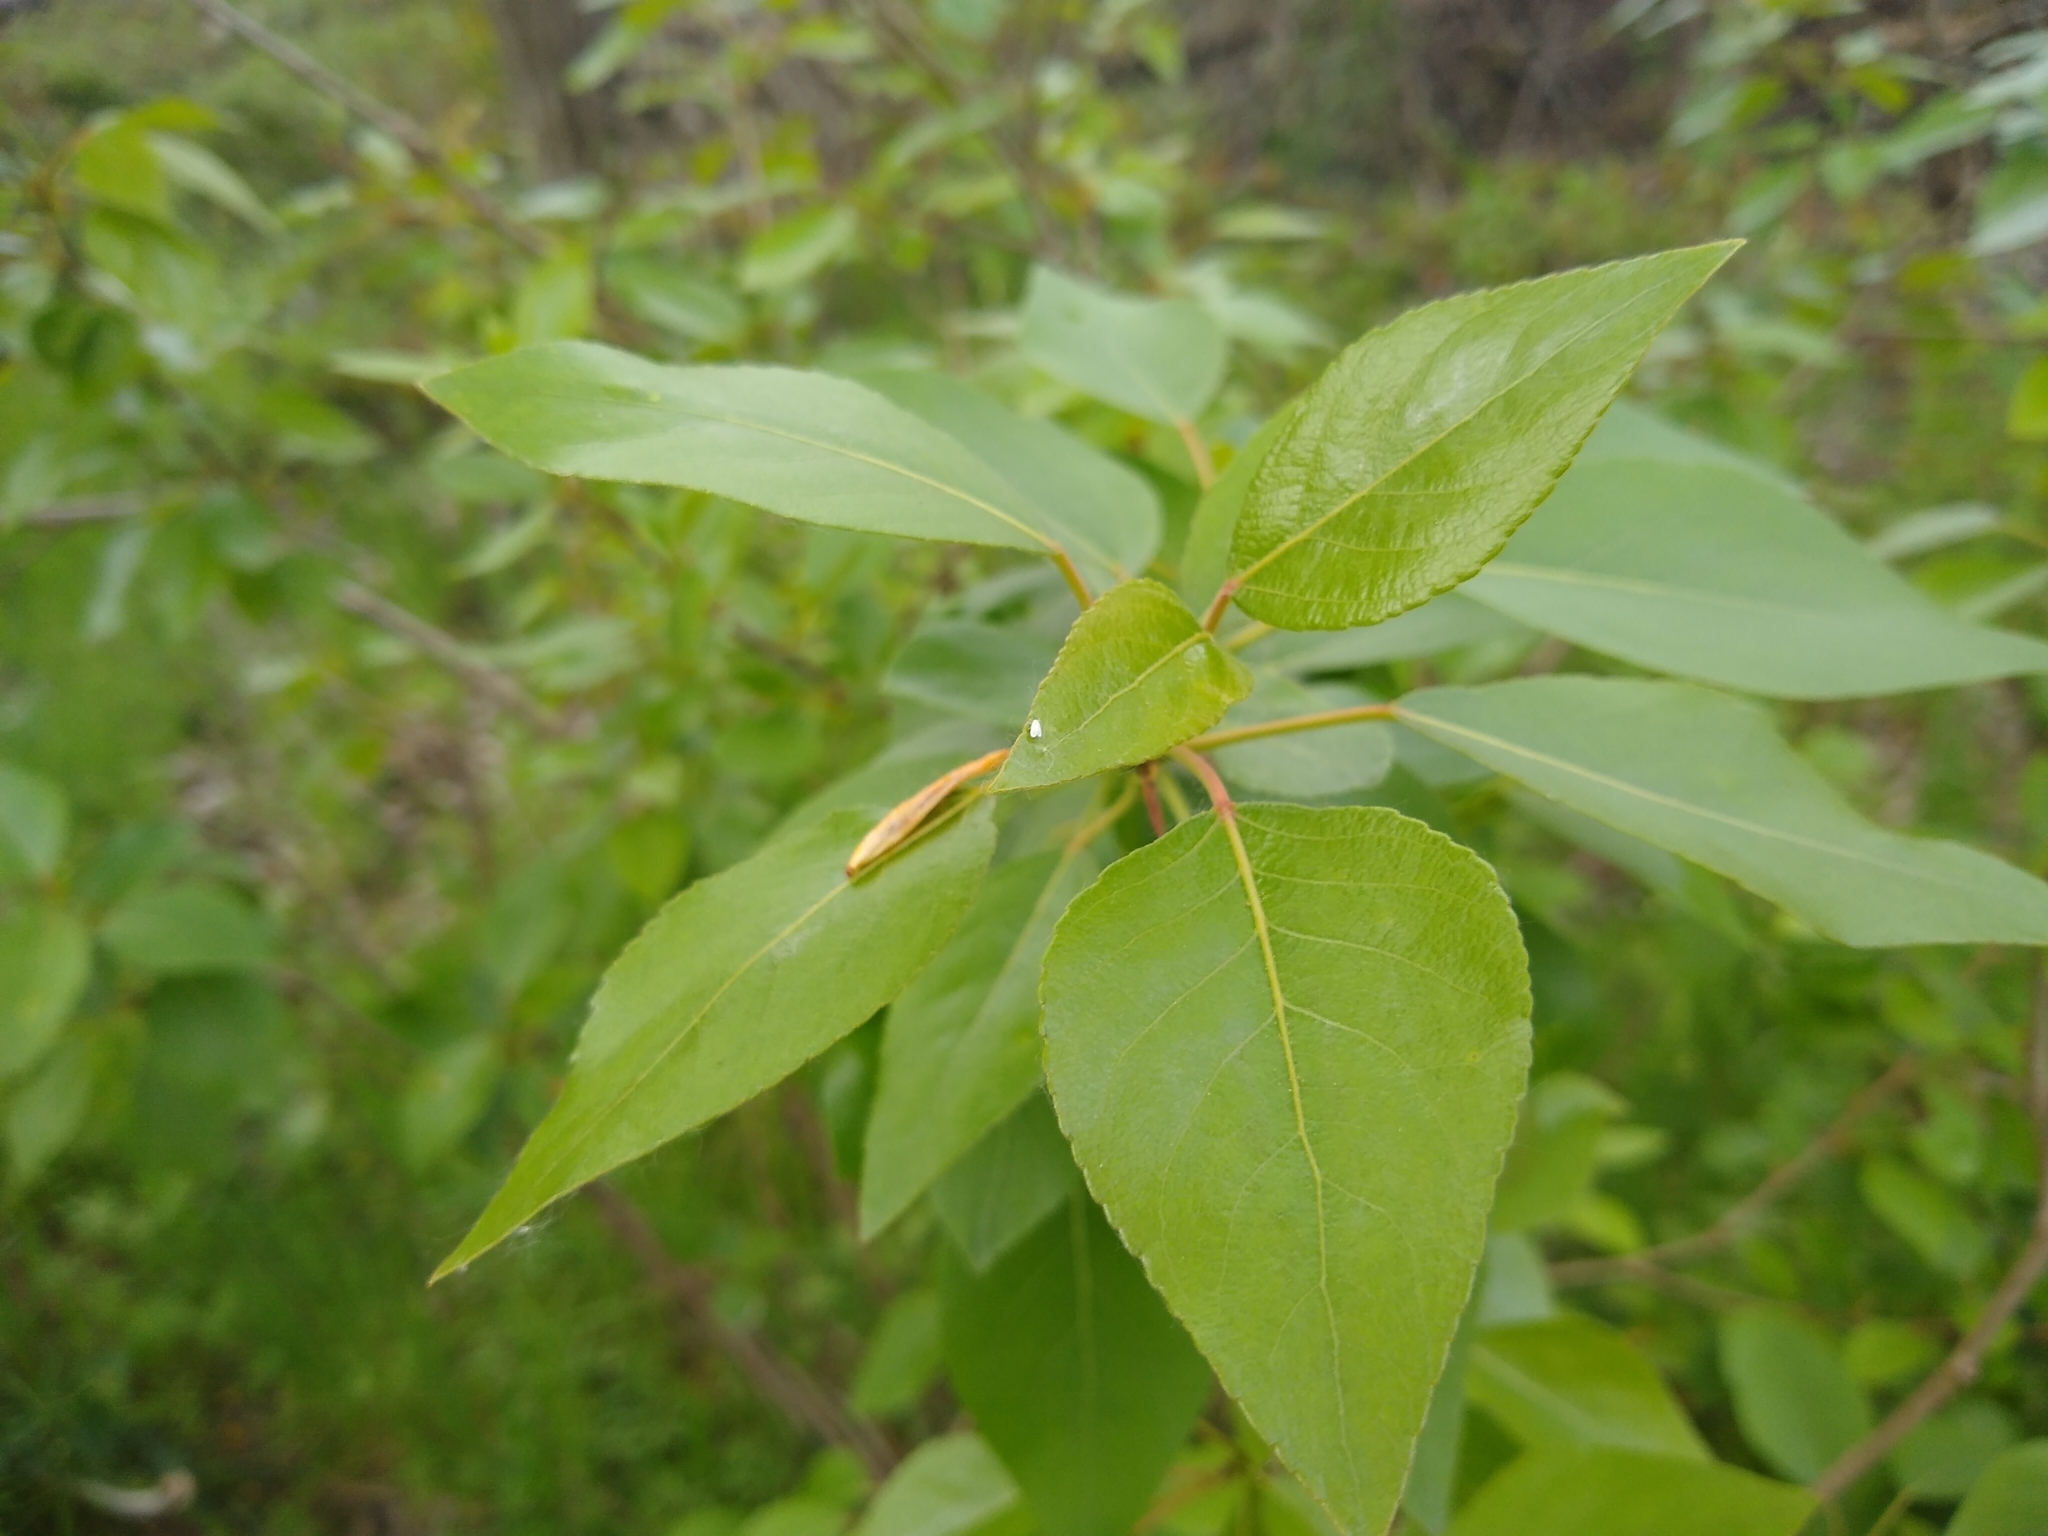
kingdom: Plantae
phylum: Tracheophyta
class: Magnoliopsida
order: Malpighiales
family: Salicaceae
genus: Populus
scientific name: Populus trichocarpa
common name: Black cottonwood
